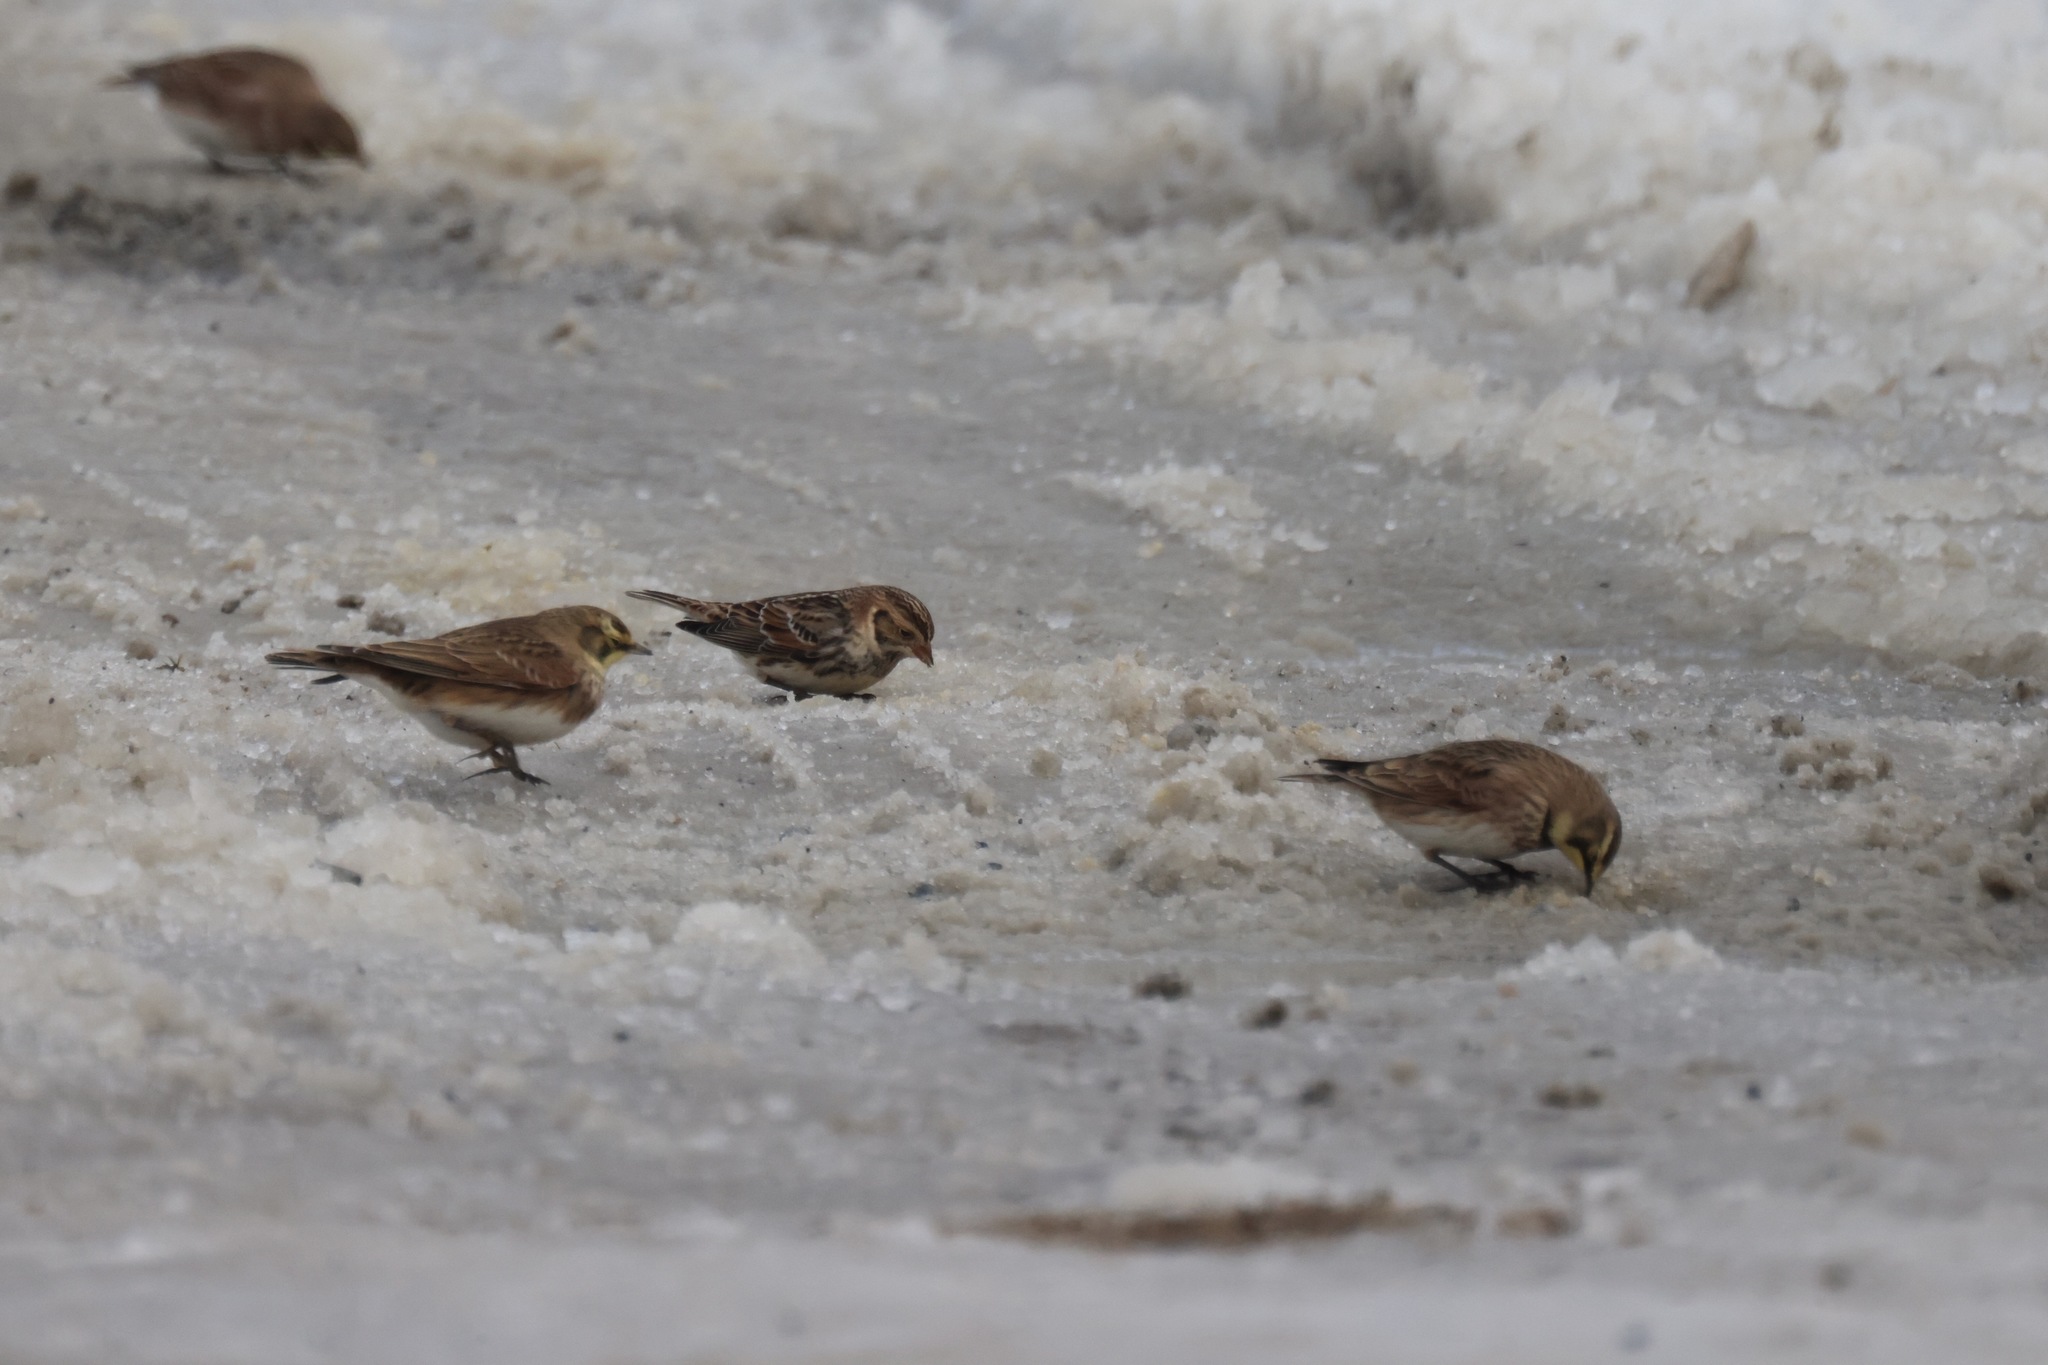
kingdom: Animalia
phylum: Chordata
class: Aves
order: Passeriformes
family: Alaudidae
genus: Eremophila
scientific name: Eremophila alpestris
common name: Horned lark
